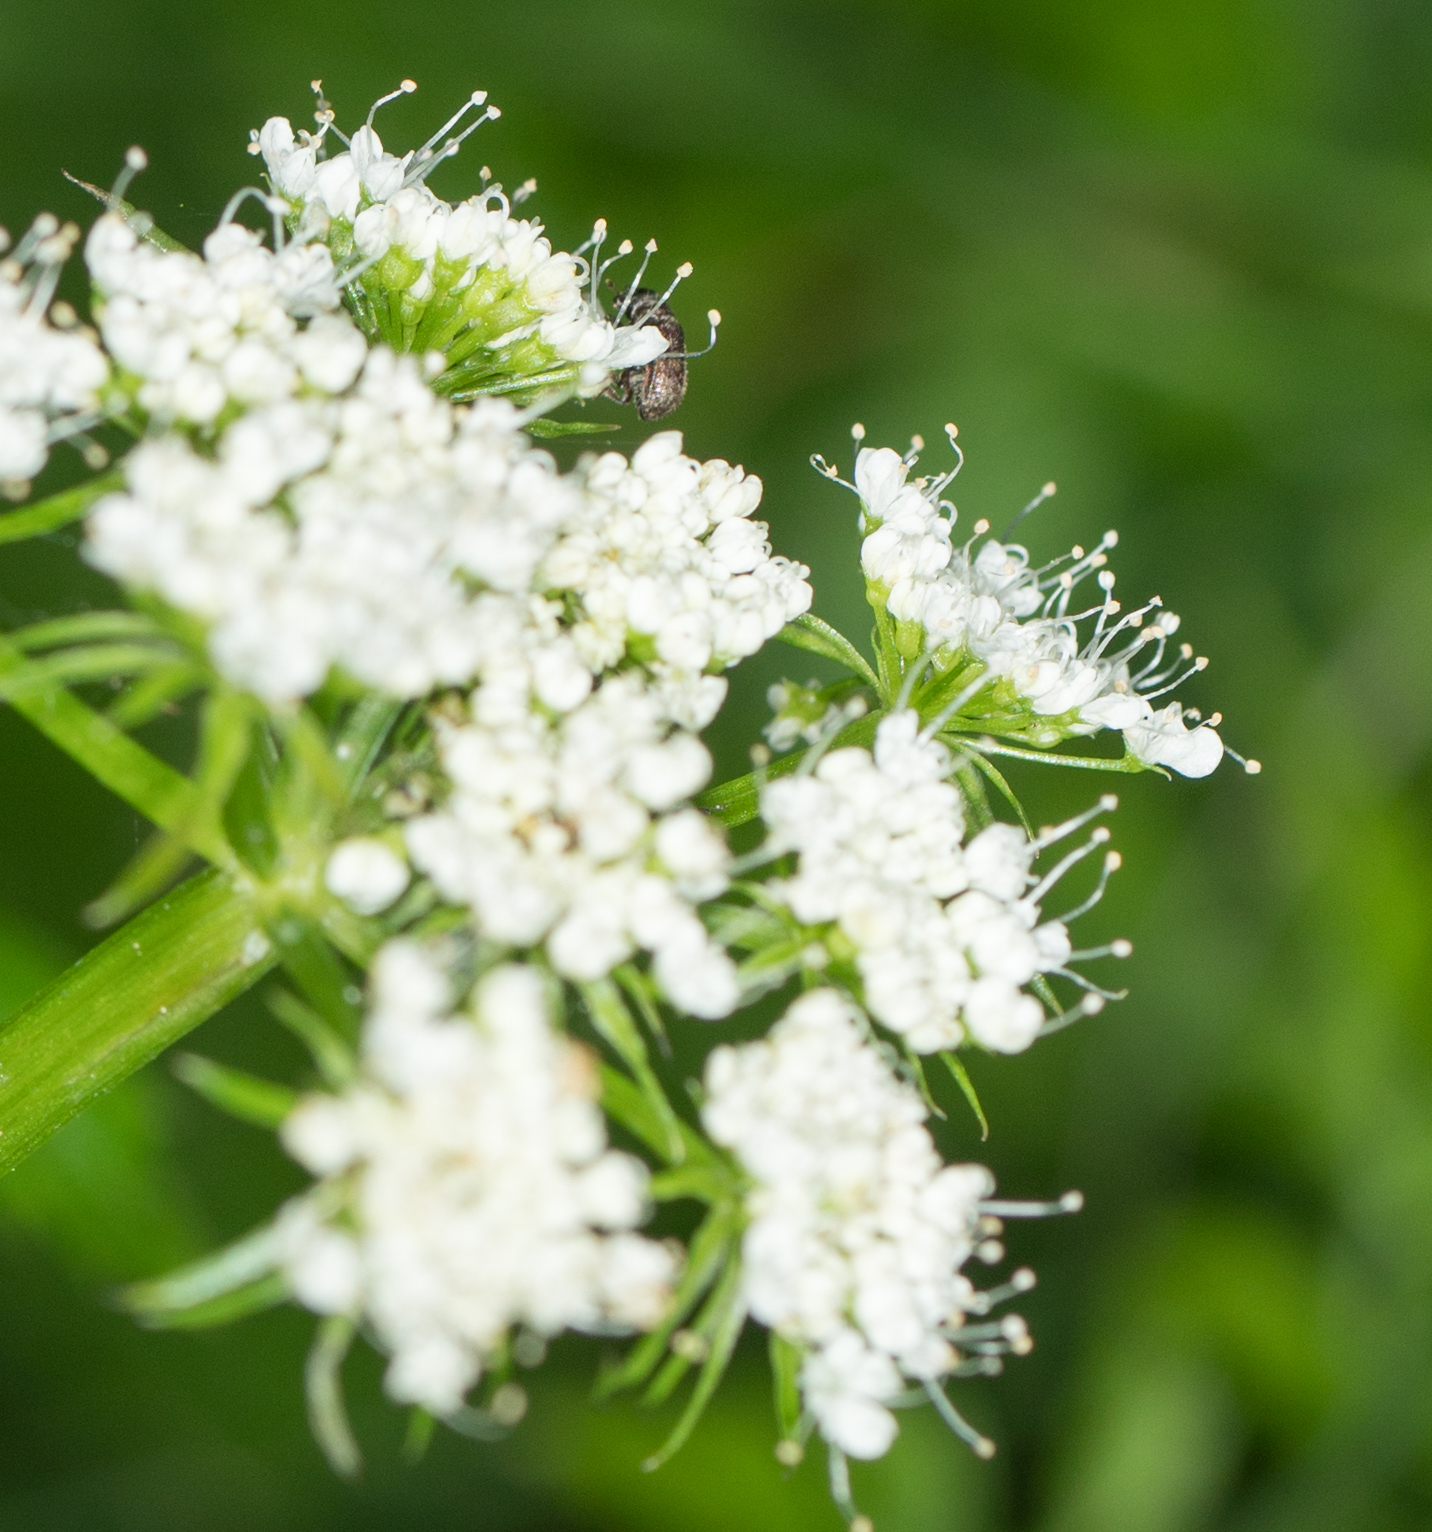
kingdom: Plantae
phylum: Tracheophyta
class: Magnoliopsida
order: Apiales
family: Apiaceae
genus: Oenanthe
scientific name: Oenanthe sarmentosa
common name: American water-parsley
